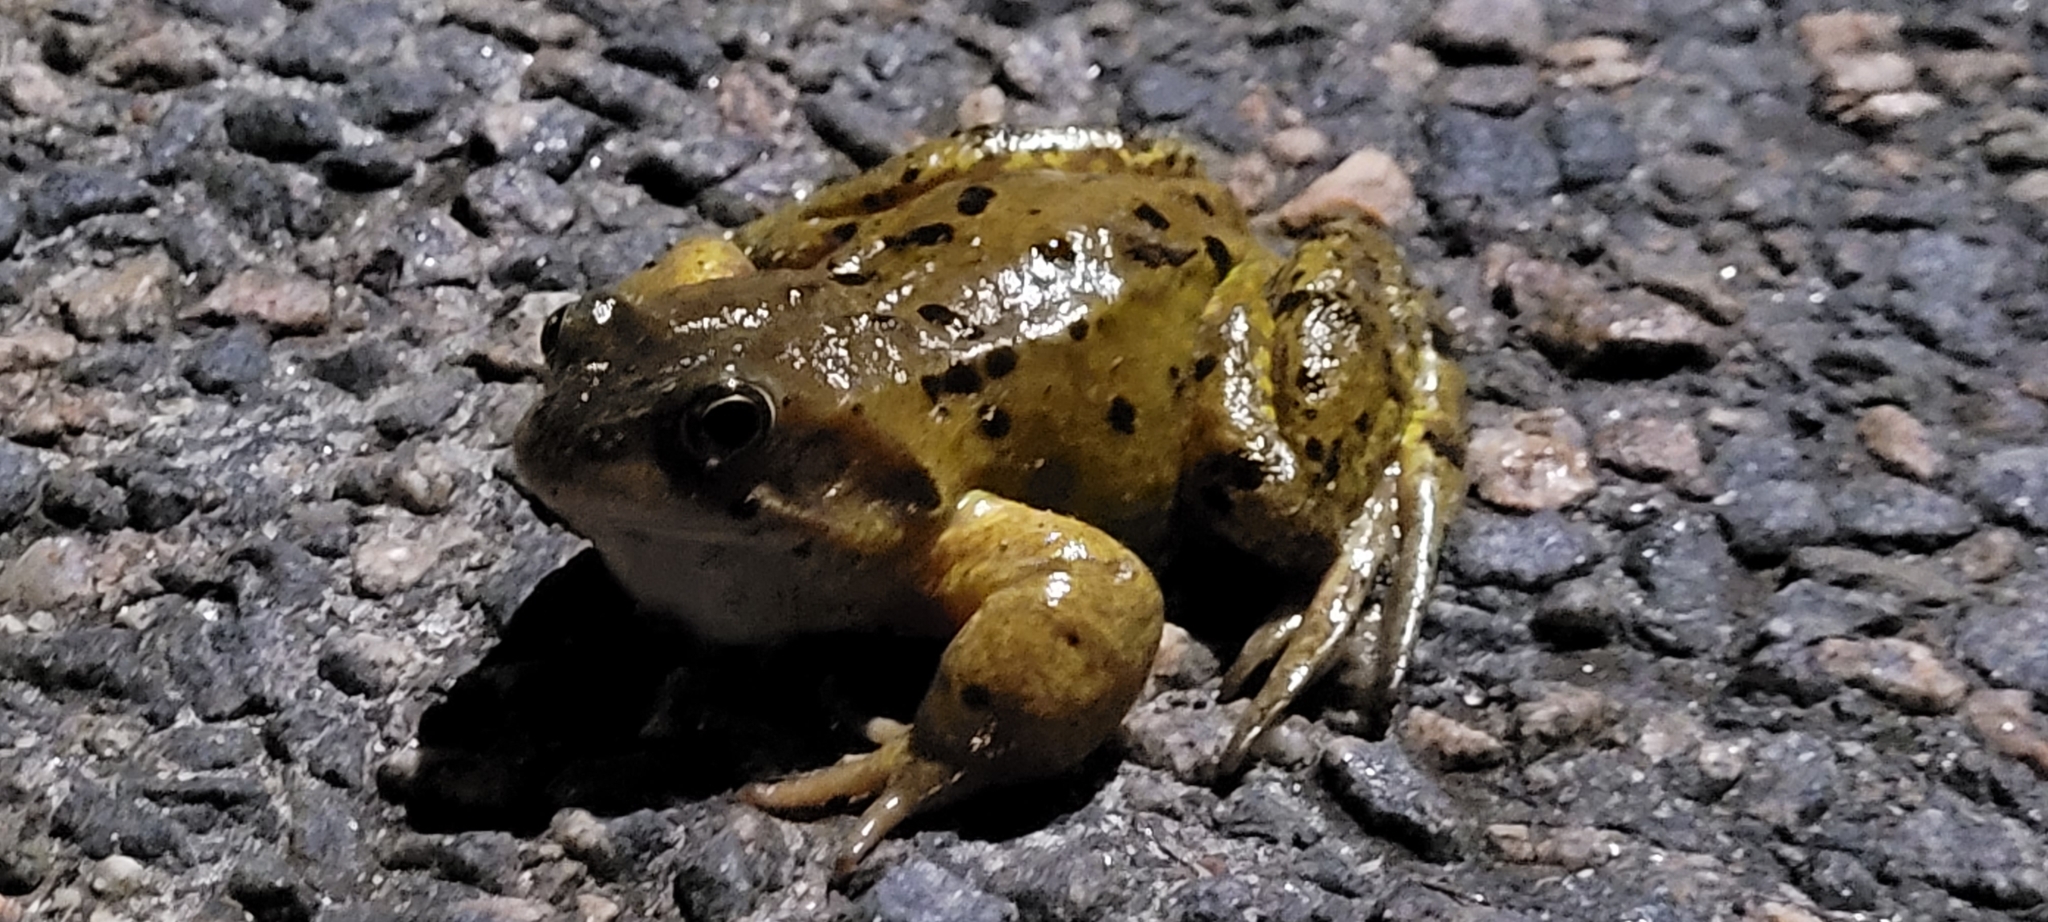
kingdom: Animalia
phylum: Chordata
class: Amphibia
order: Anura
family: Ranidae
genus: Rana
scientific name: Rana temporaria
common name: Common frog
